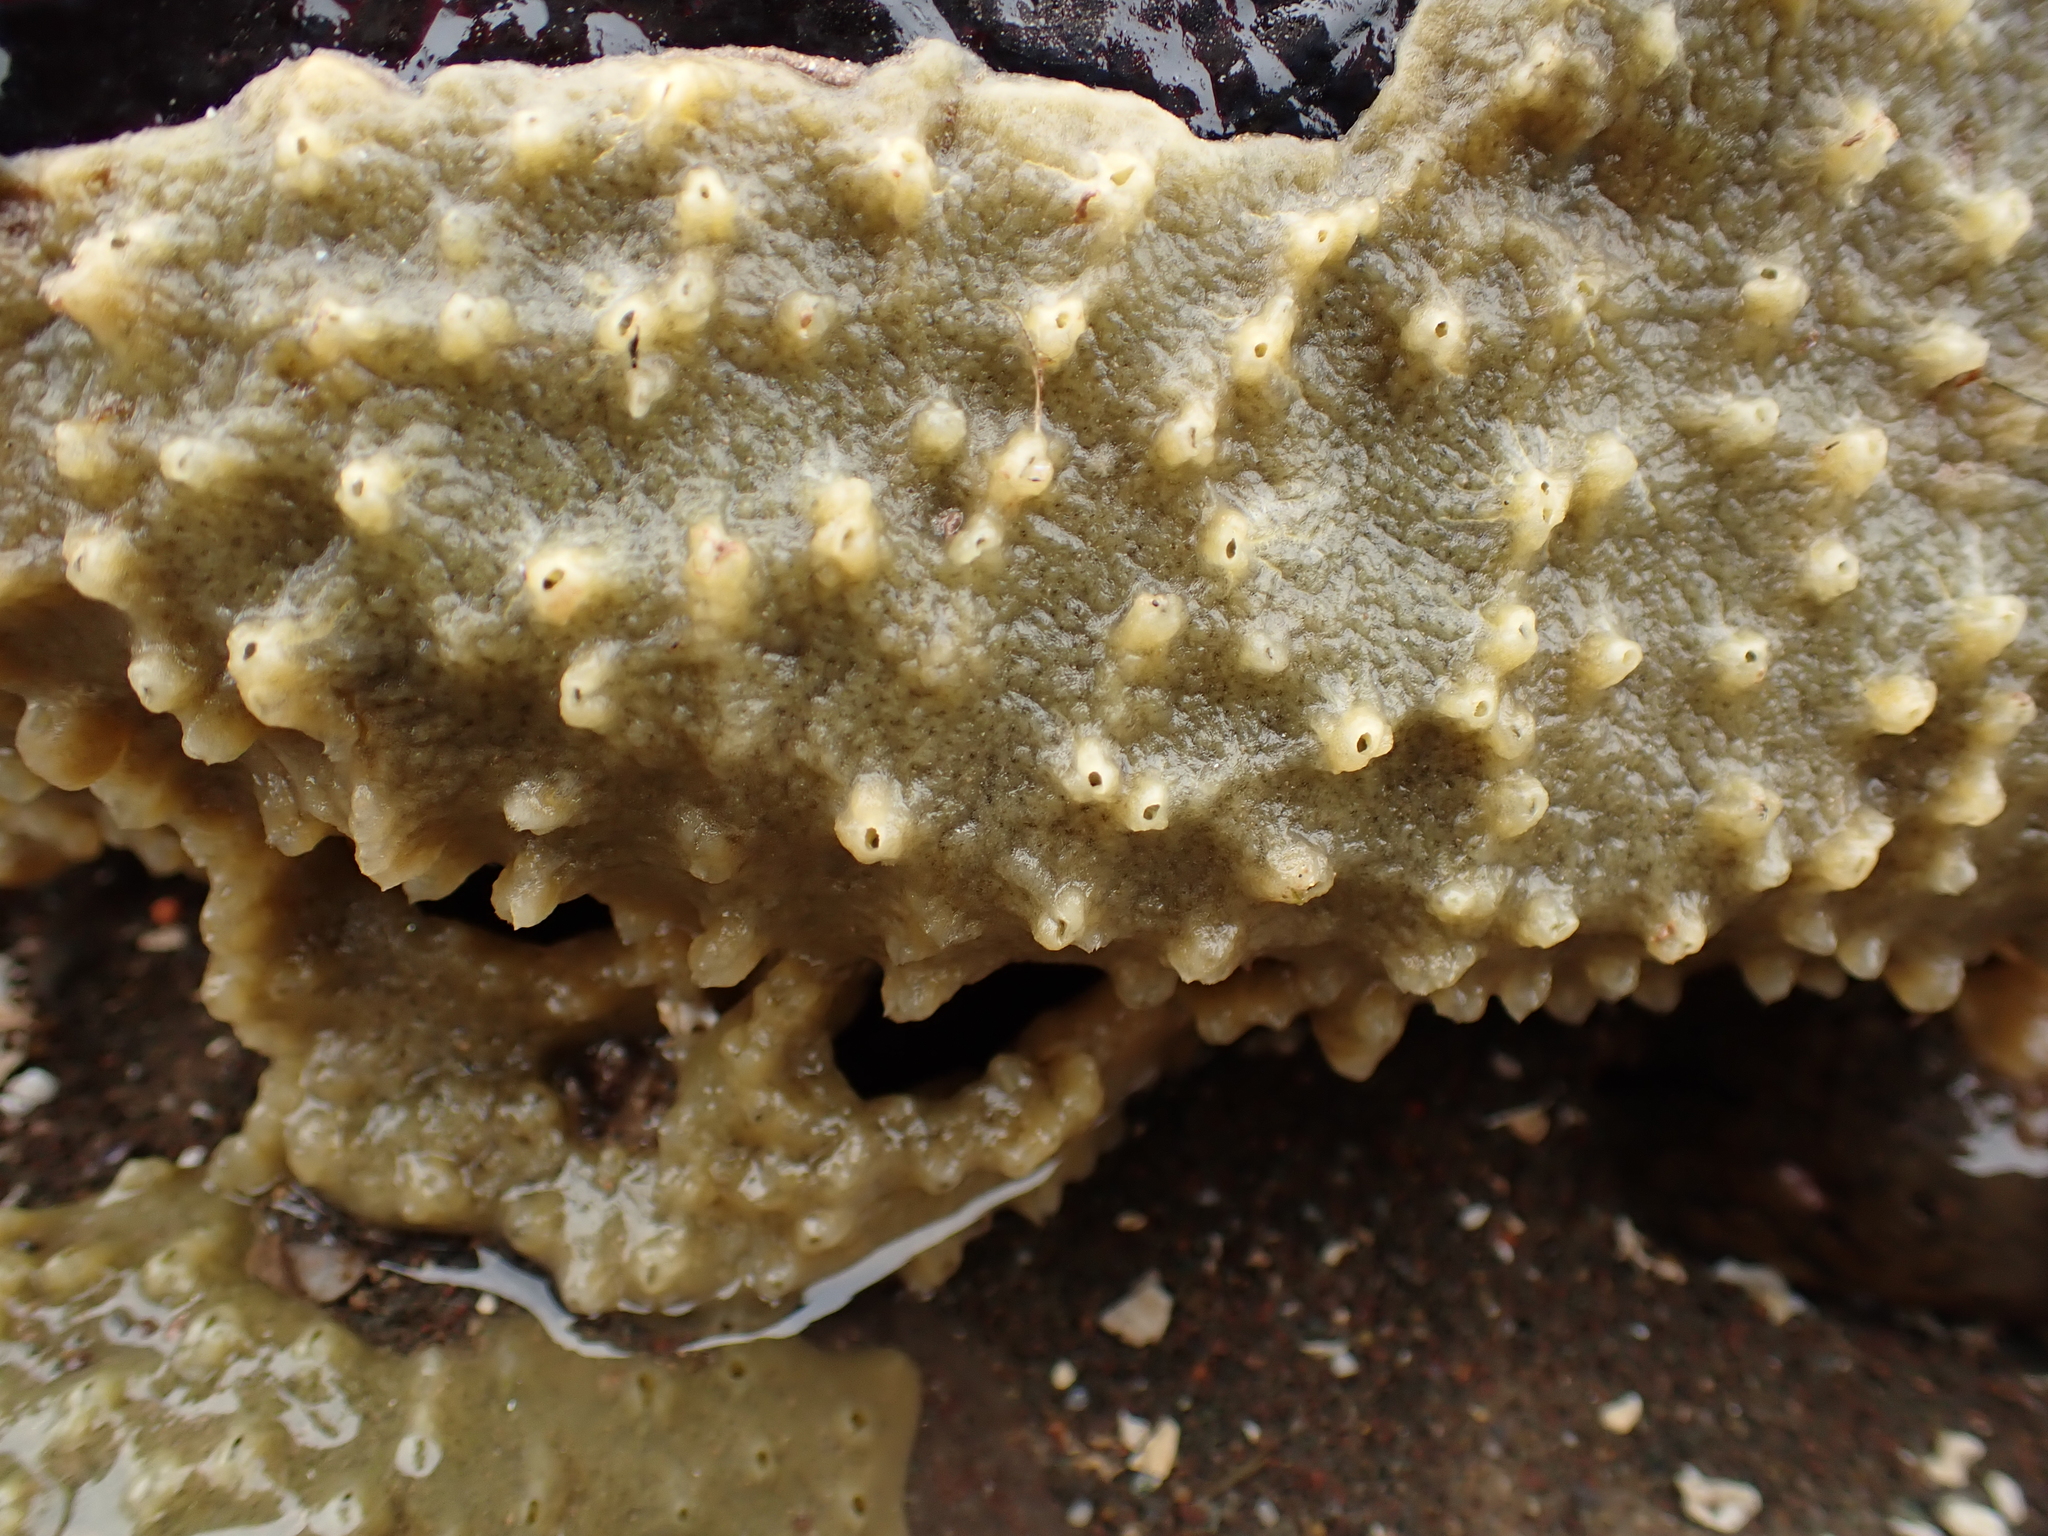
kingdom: Animalia
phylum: Porifera
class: Demospongiae
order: Suberitida
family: Halichondriidae
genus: Halichondria
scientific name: Halichondria panicea
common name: Breadcrumb sponge
